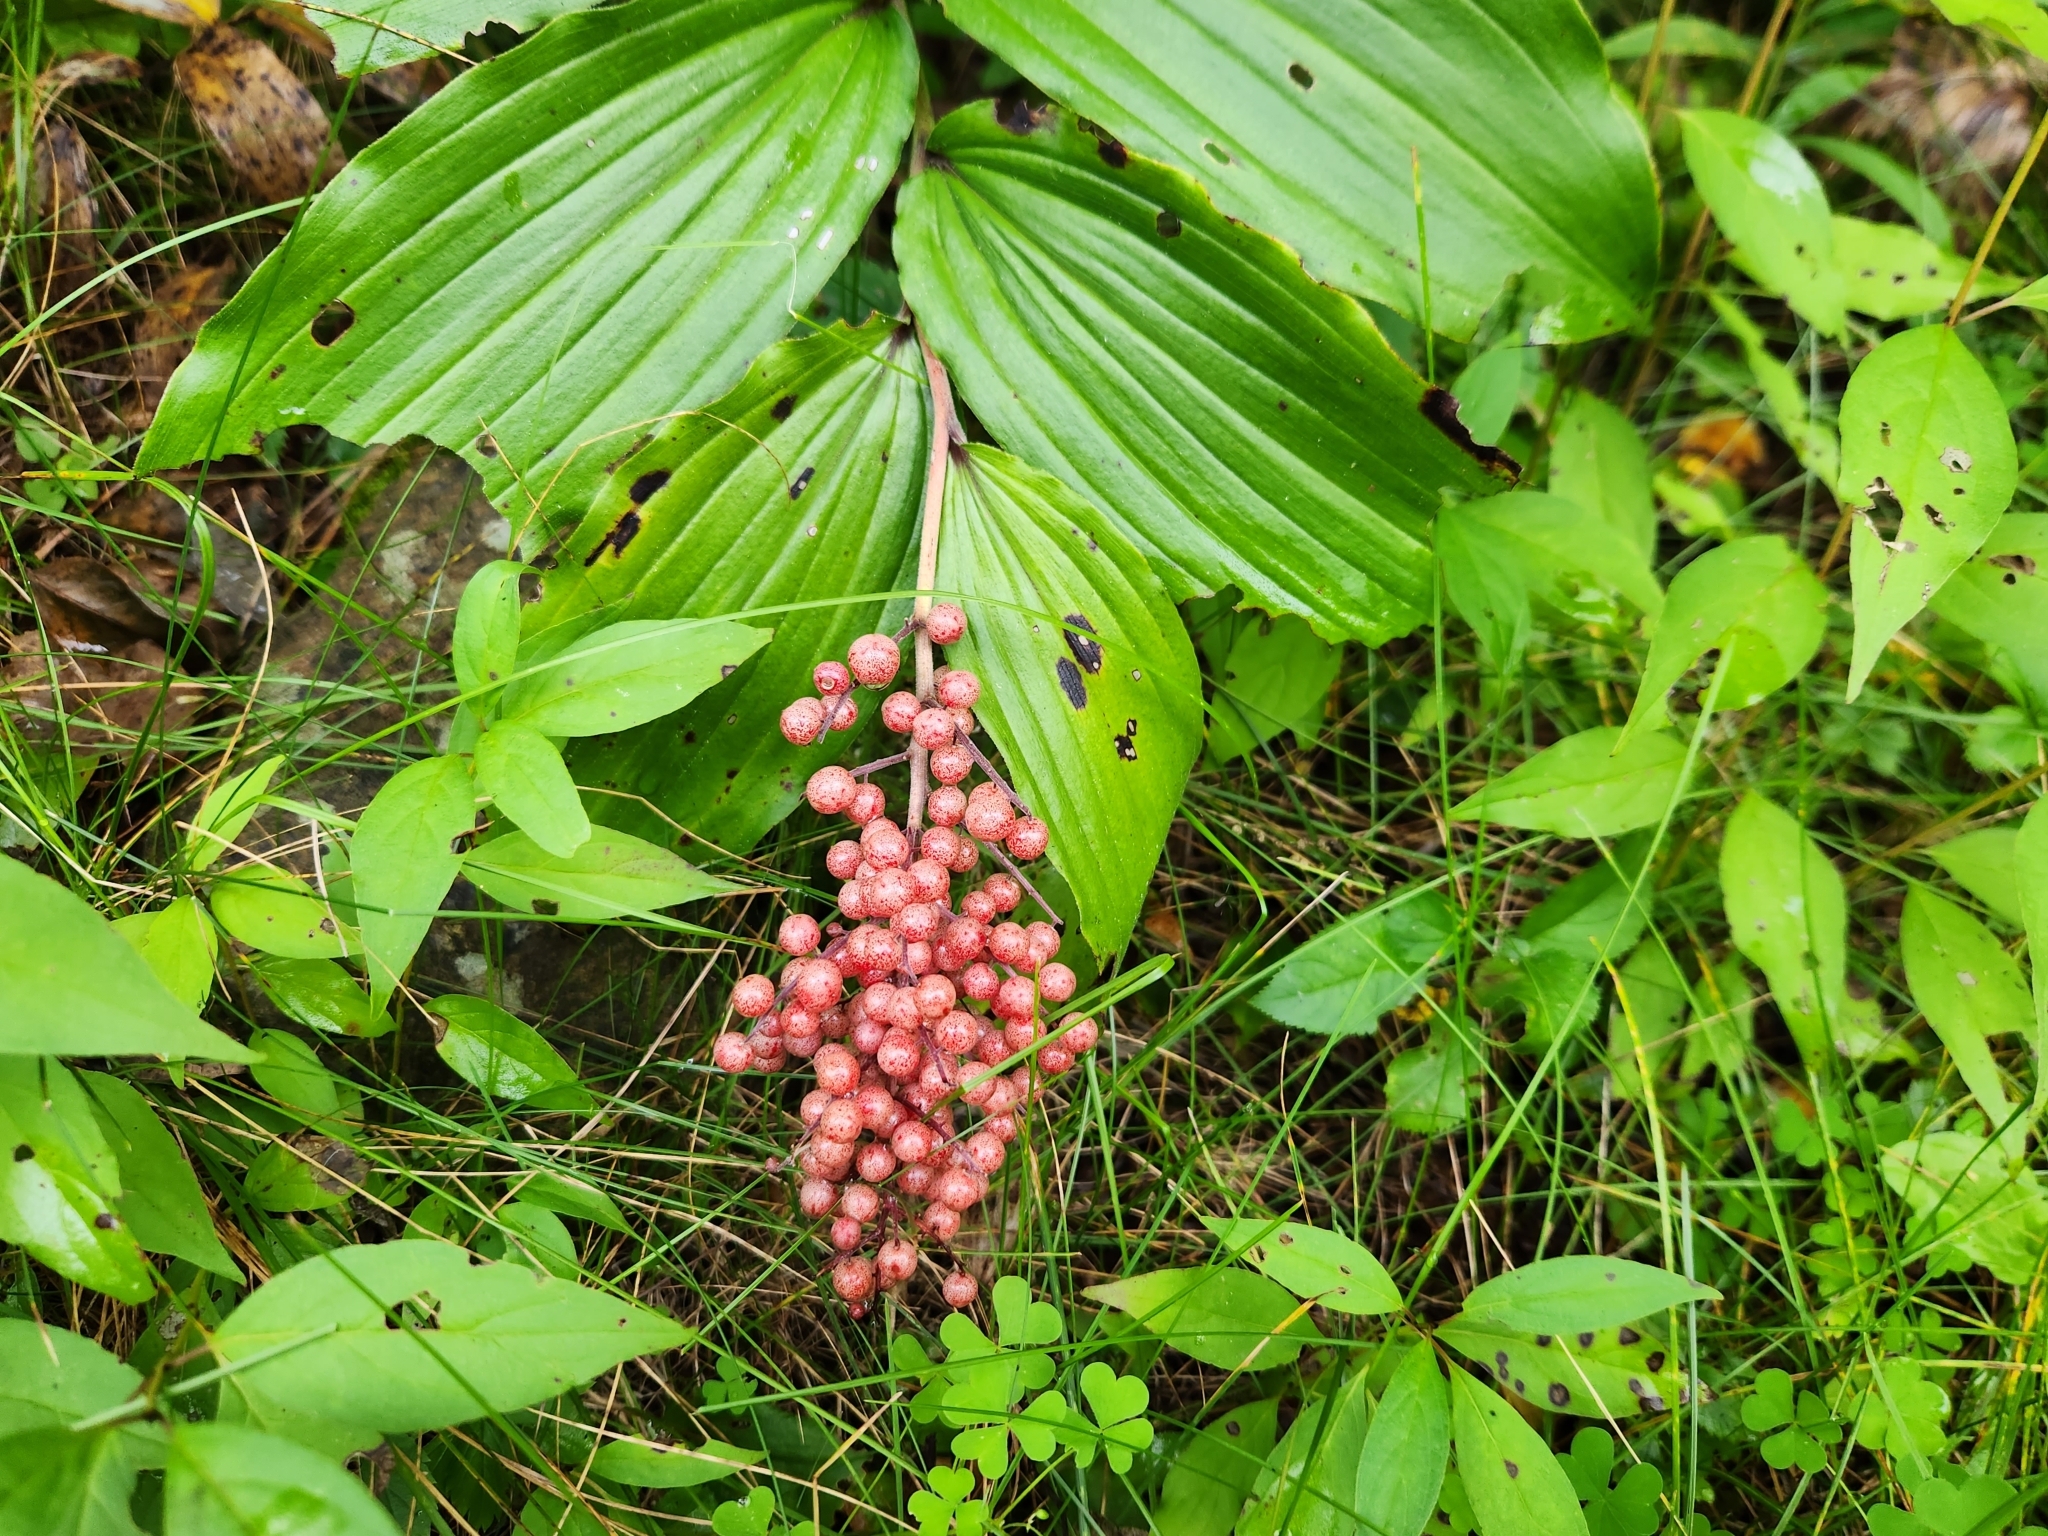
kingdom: Plantae
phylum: Tracheophyta
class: Liliopsida
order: Asparagales
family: Asparagaceae
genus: Maianthemum
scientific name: Maianthemum racemosum
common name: False spikenard
